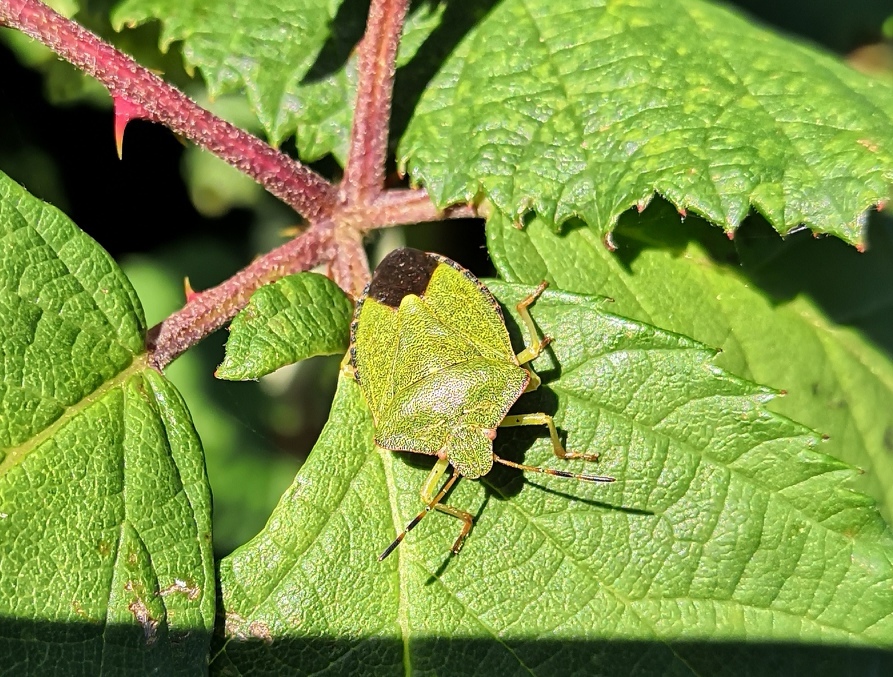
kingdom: Animalia
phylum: Arthropoda
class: Insecta
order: Hemiptera
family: Pentatomidae
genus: Palomena
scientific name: Palomena prasina
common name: Green shieldbug
